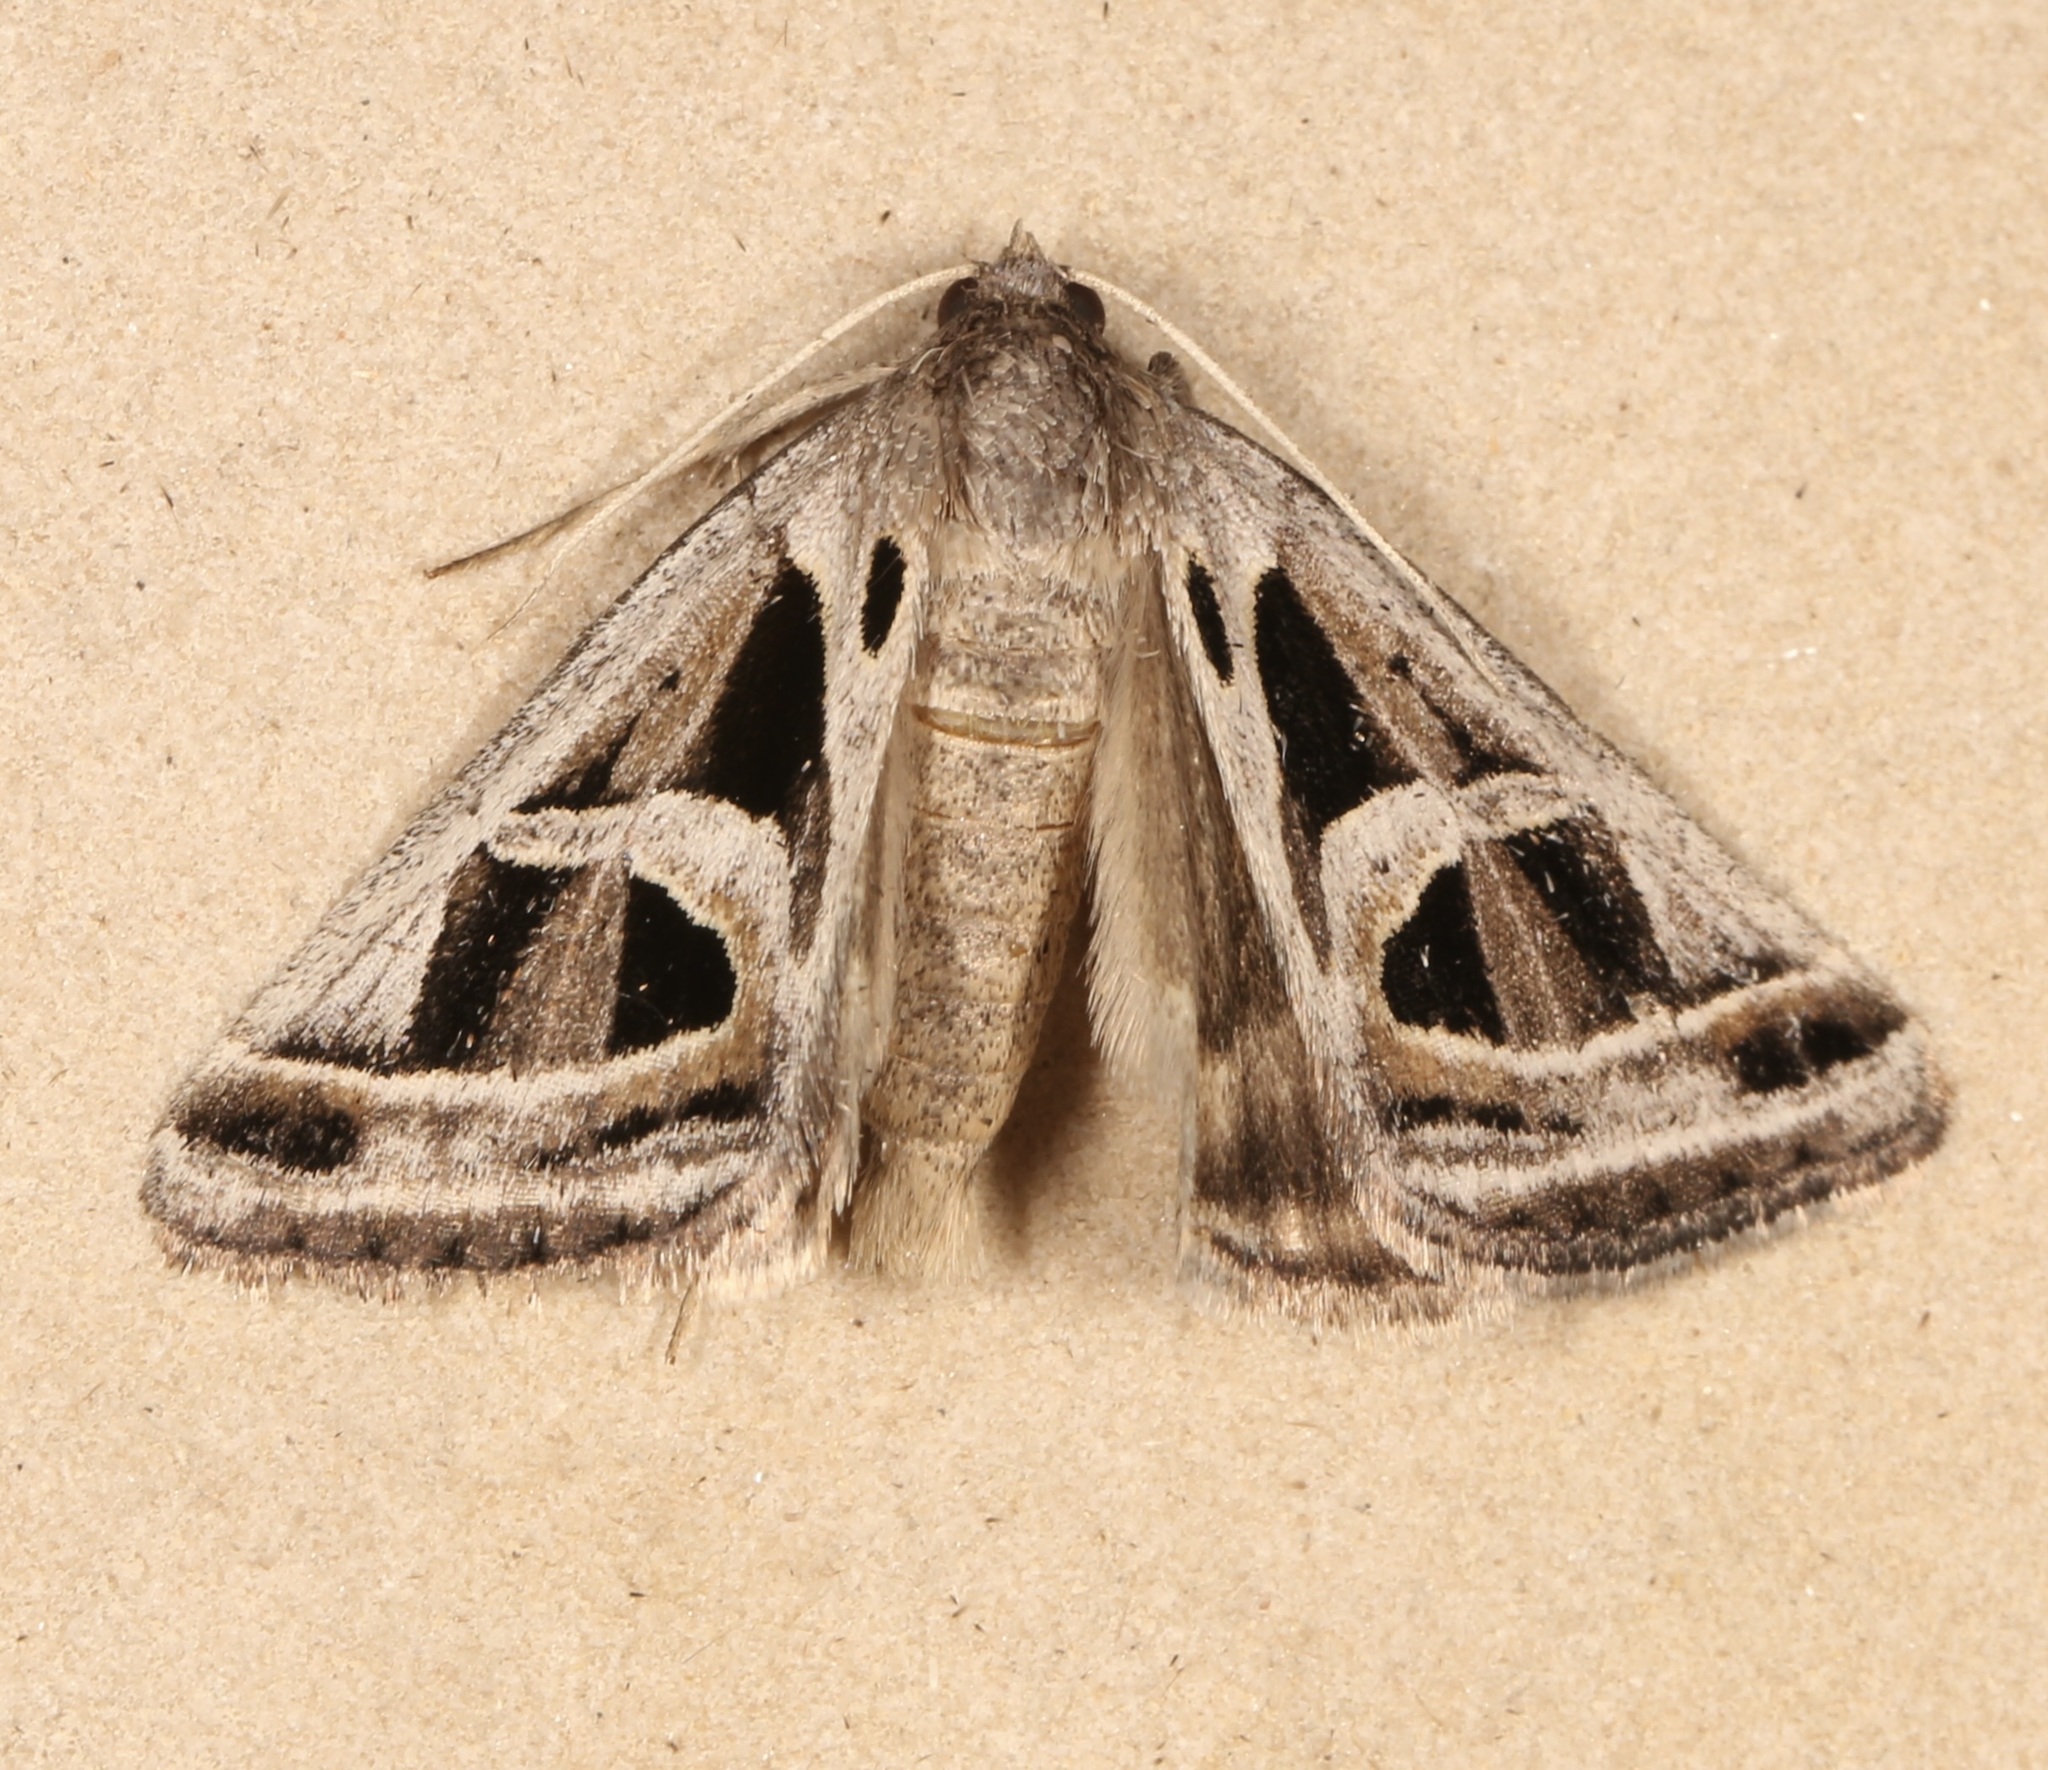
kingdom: Animalia
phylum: Arthropoda
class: Insecta
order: Lepidoptera
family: Erebidae
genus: Callistege
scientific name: Callistege intercalaris
